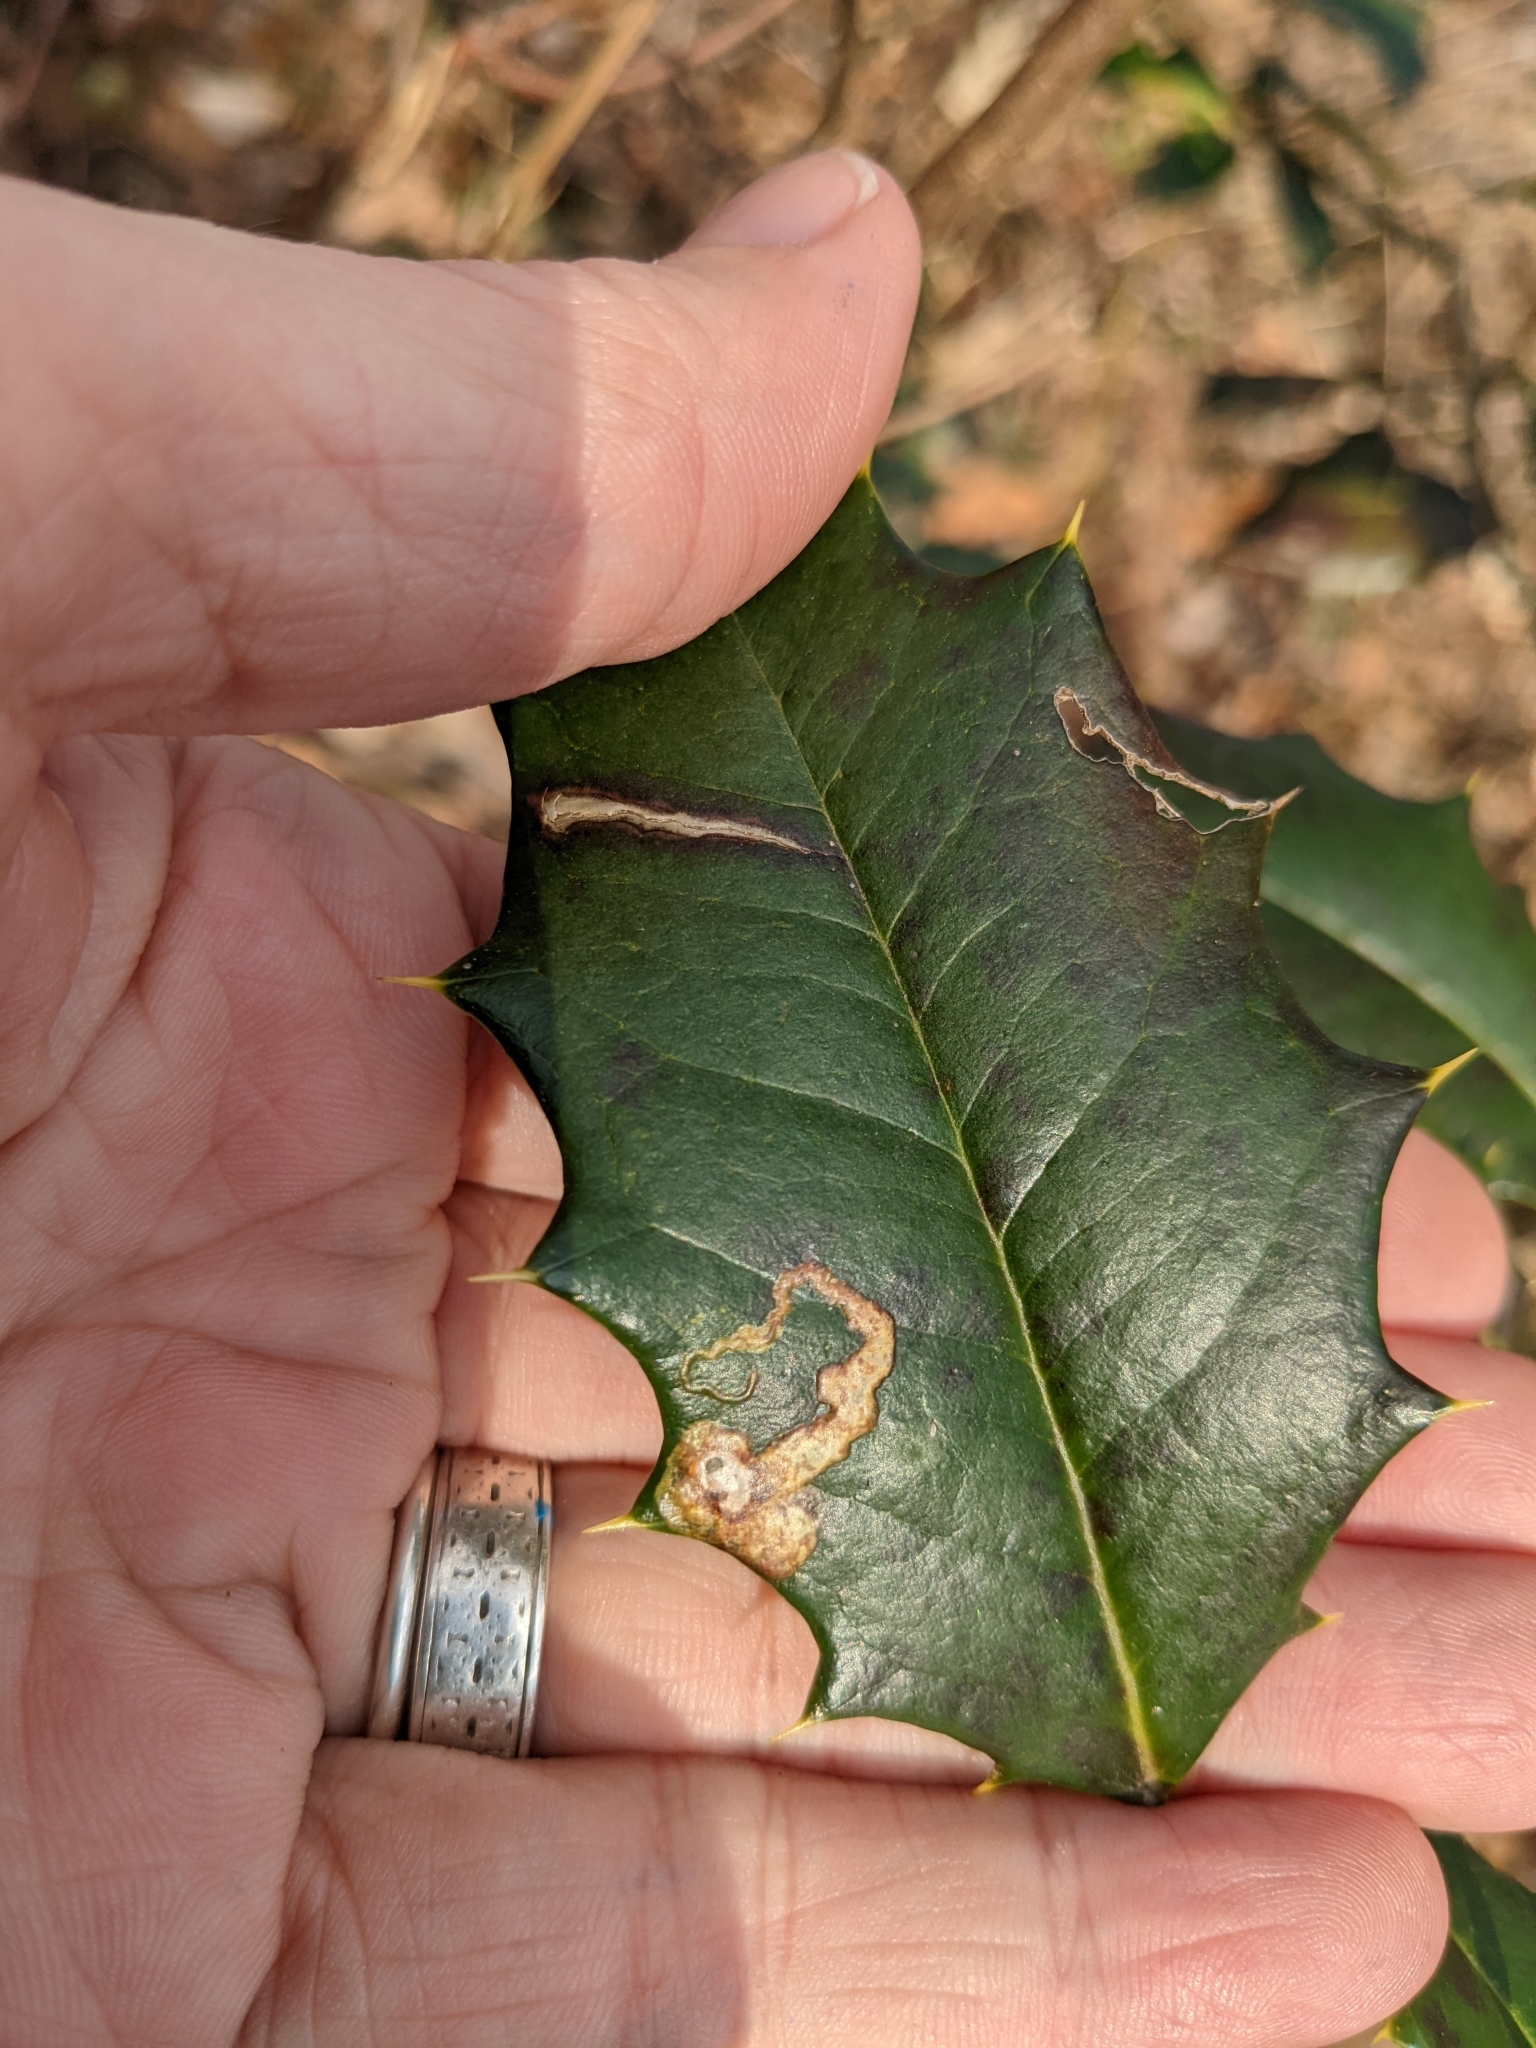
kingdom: Animalia
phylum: Arthropoda
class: Insecta
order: Diptera
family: Agromyzidae
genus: Phytomyza
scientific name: Phytomyza ilicicola
